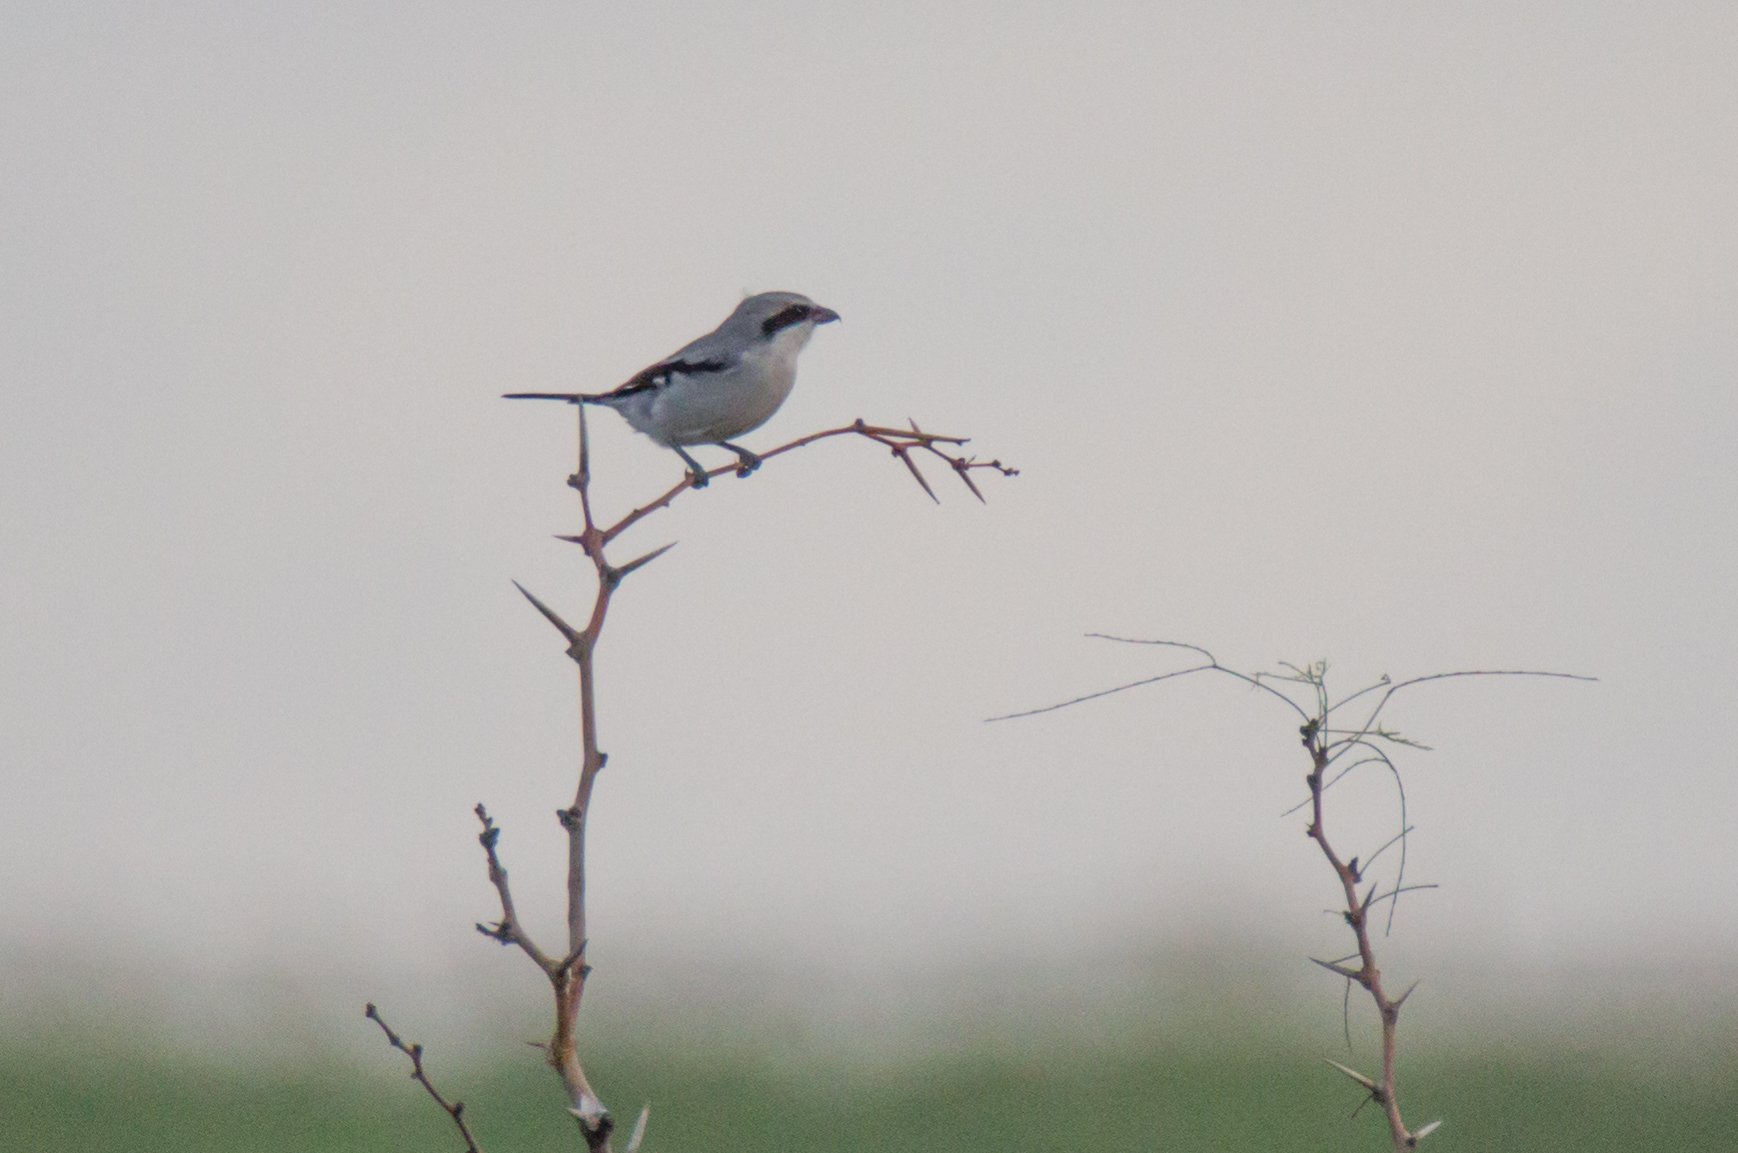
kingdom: Animalia
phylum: Chordata
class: Aves
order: Passeriformes
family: Laniidae
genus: Lanius
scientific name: Lanius ludovicianus
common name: Loggerhead shrike
